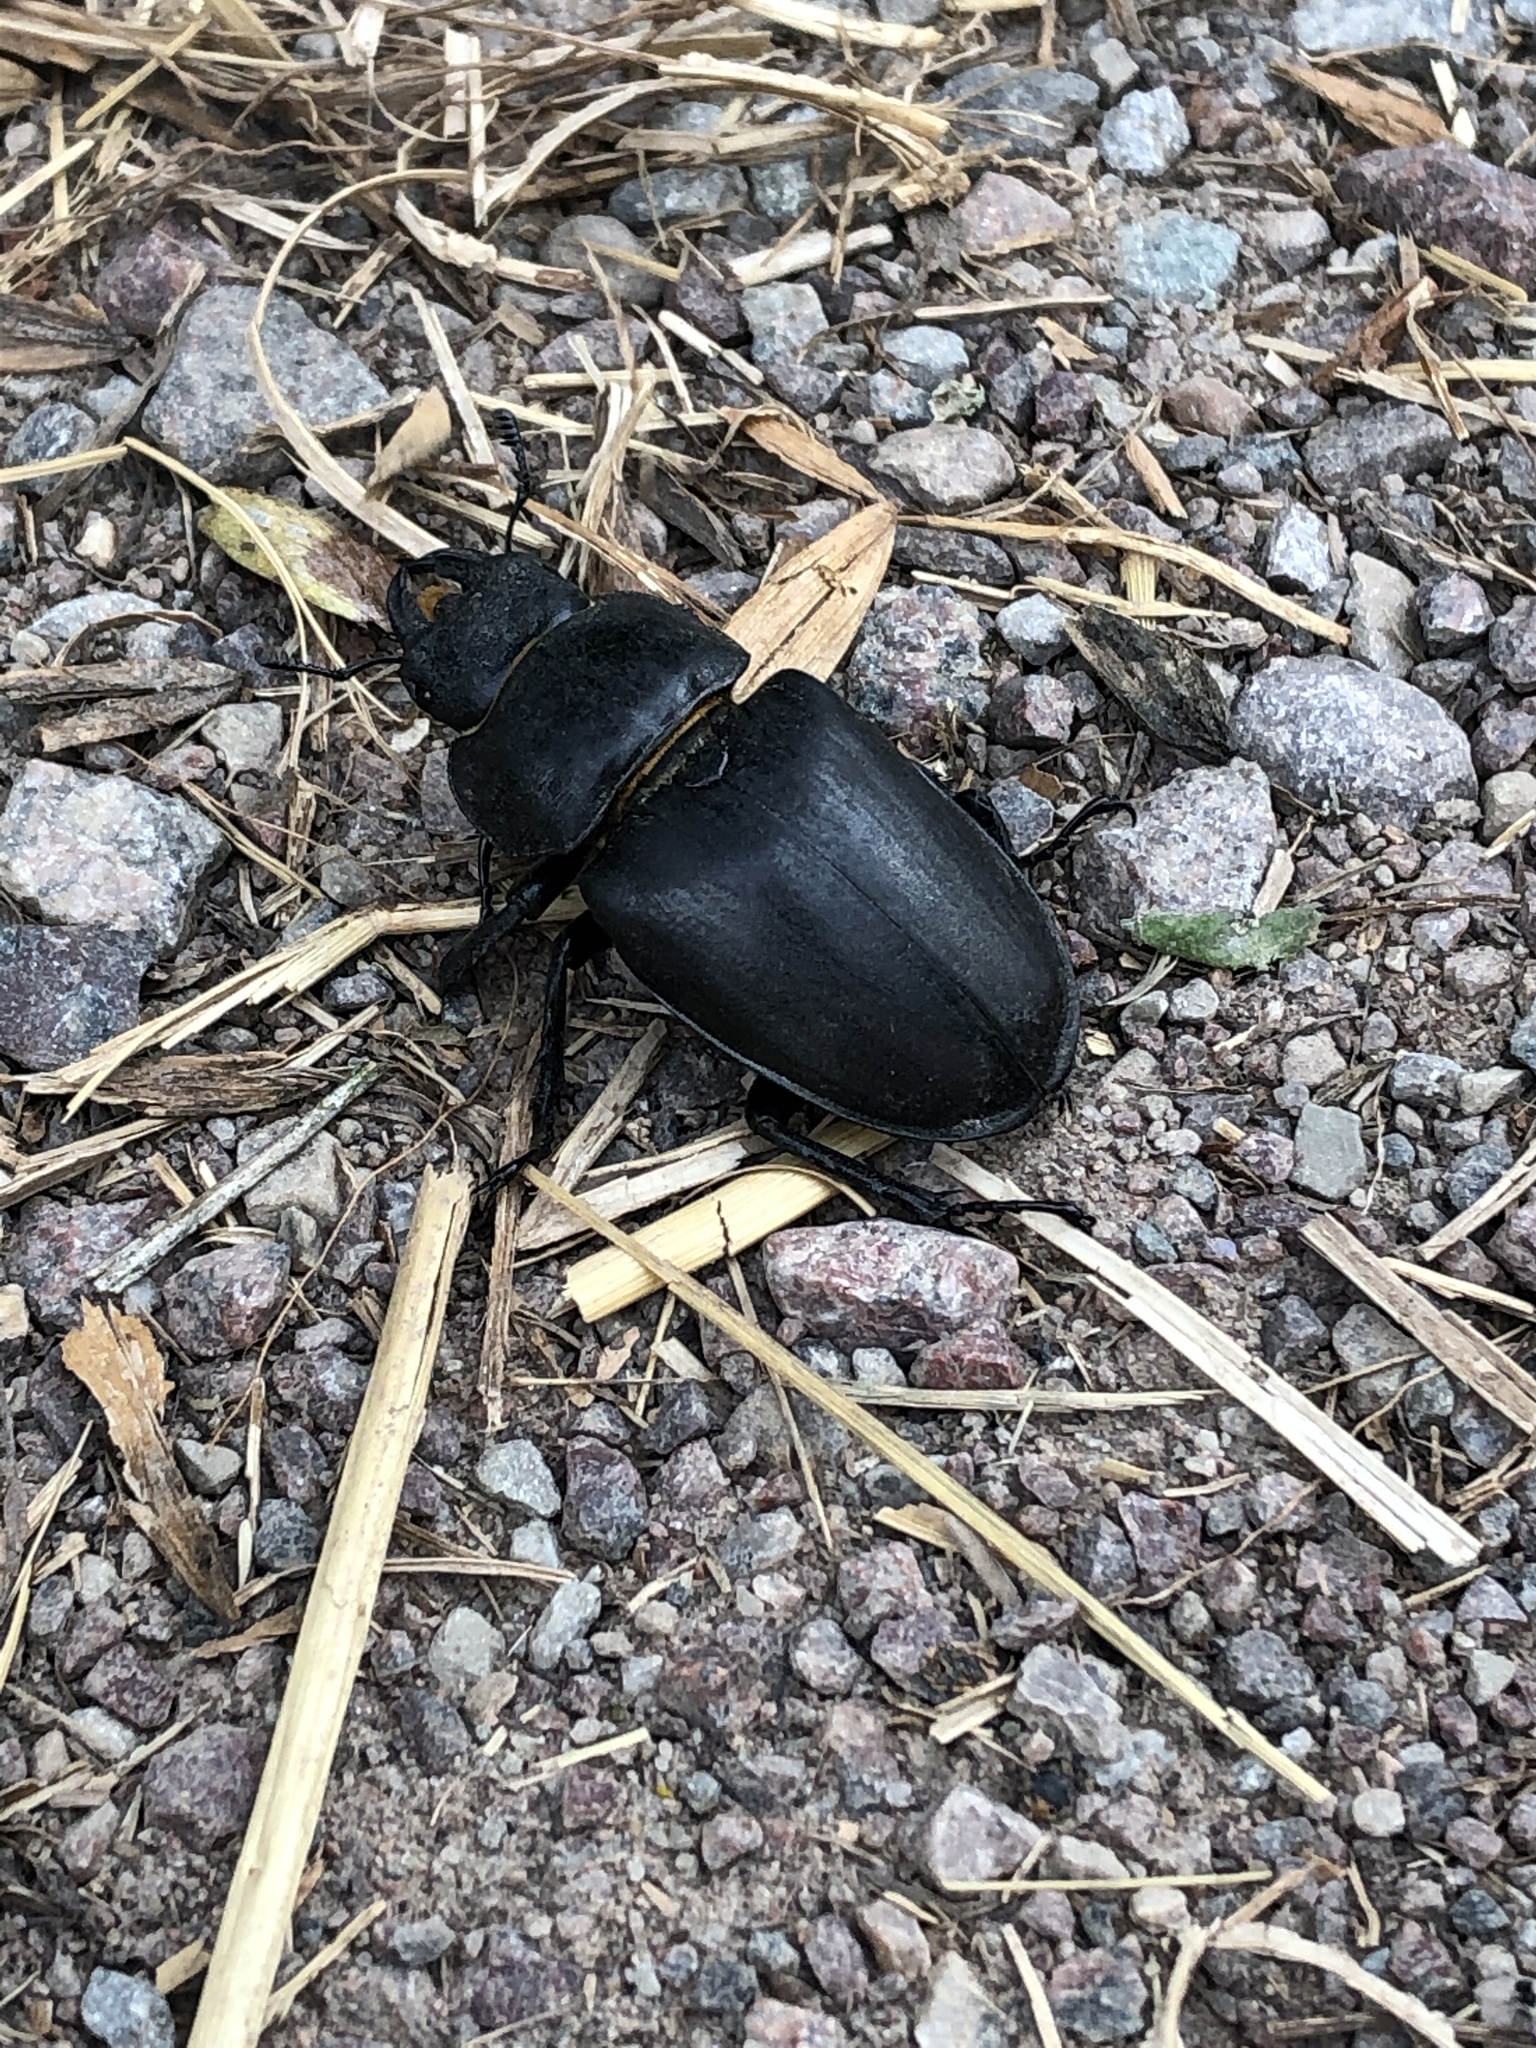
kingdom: Animalia
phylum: Arthropoda
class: Insecta
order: Coleoptera
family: Lucanidae
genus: Dorcus
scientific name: Dorcus parallelipipedus
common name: Lesser stag beetle
